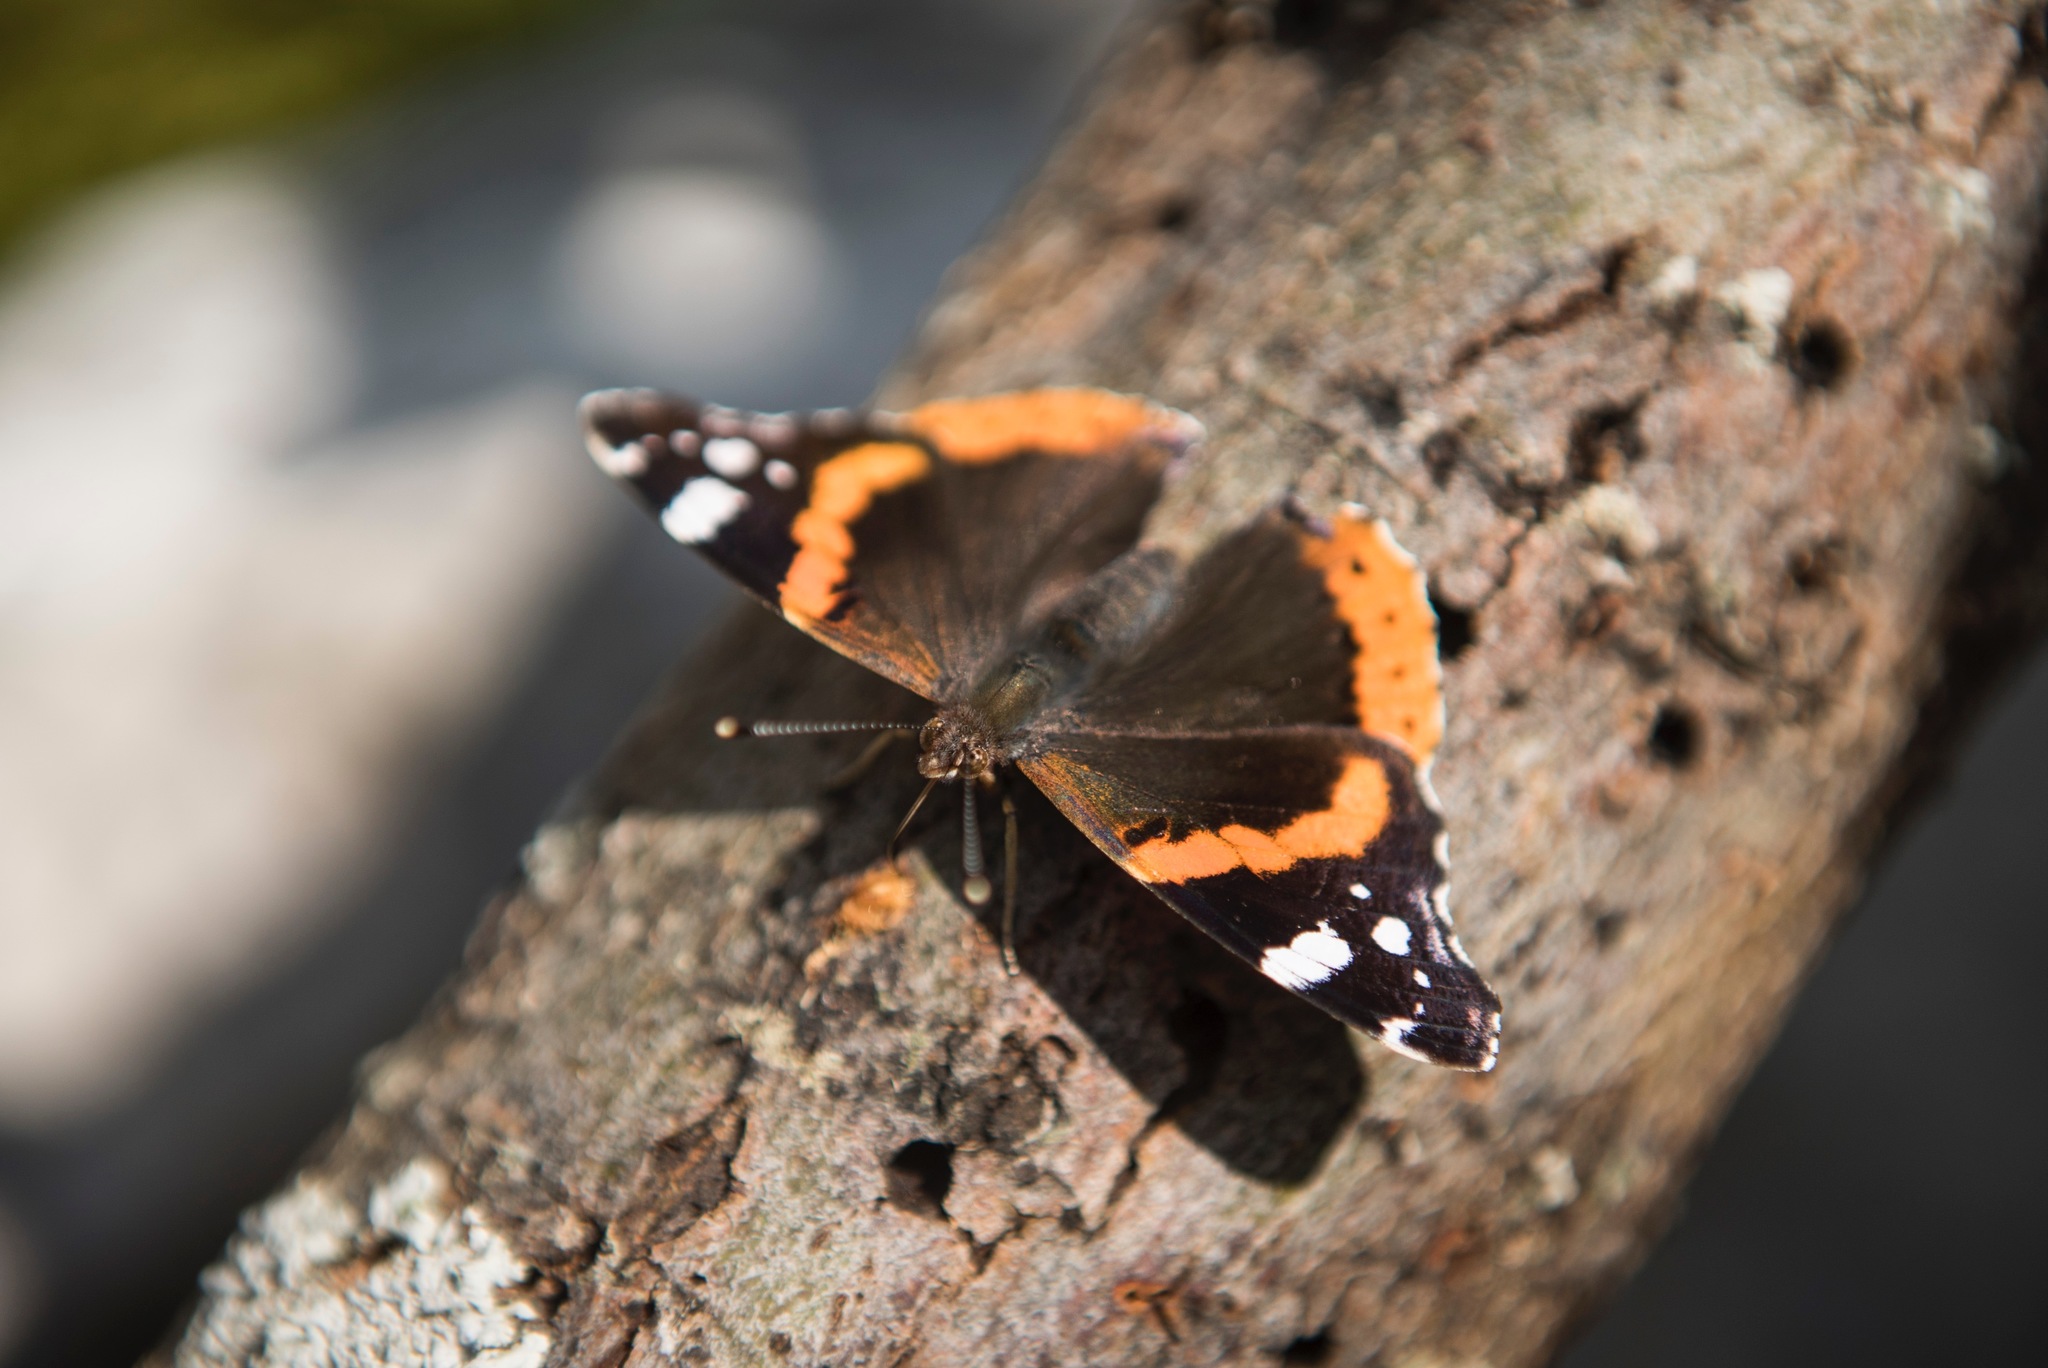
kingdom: Animalia
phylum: Arthropoda
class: Insecta
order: Lepidoptera
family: Nymphalidae
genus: Vanessa
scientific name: Vanessa atalanta
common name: Red admiral
